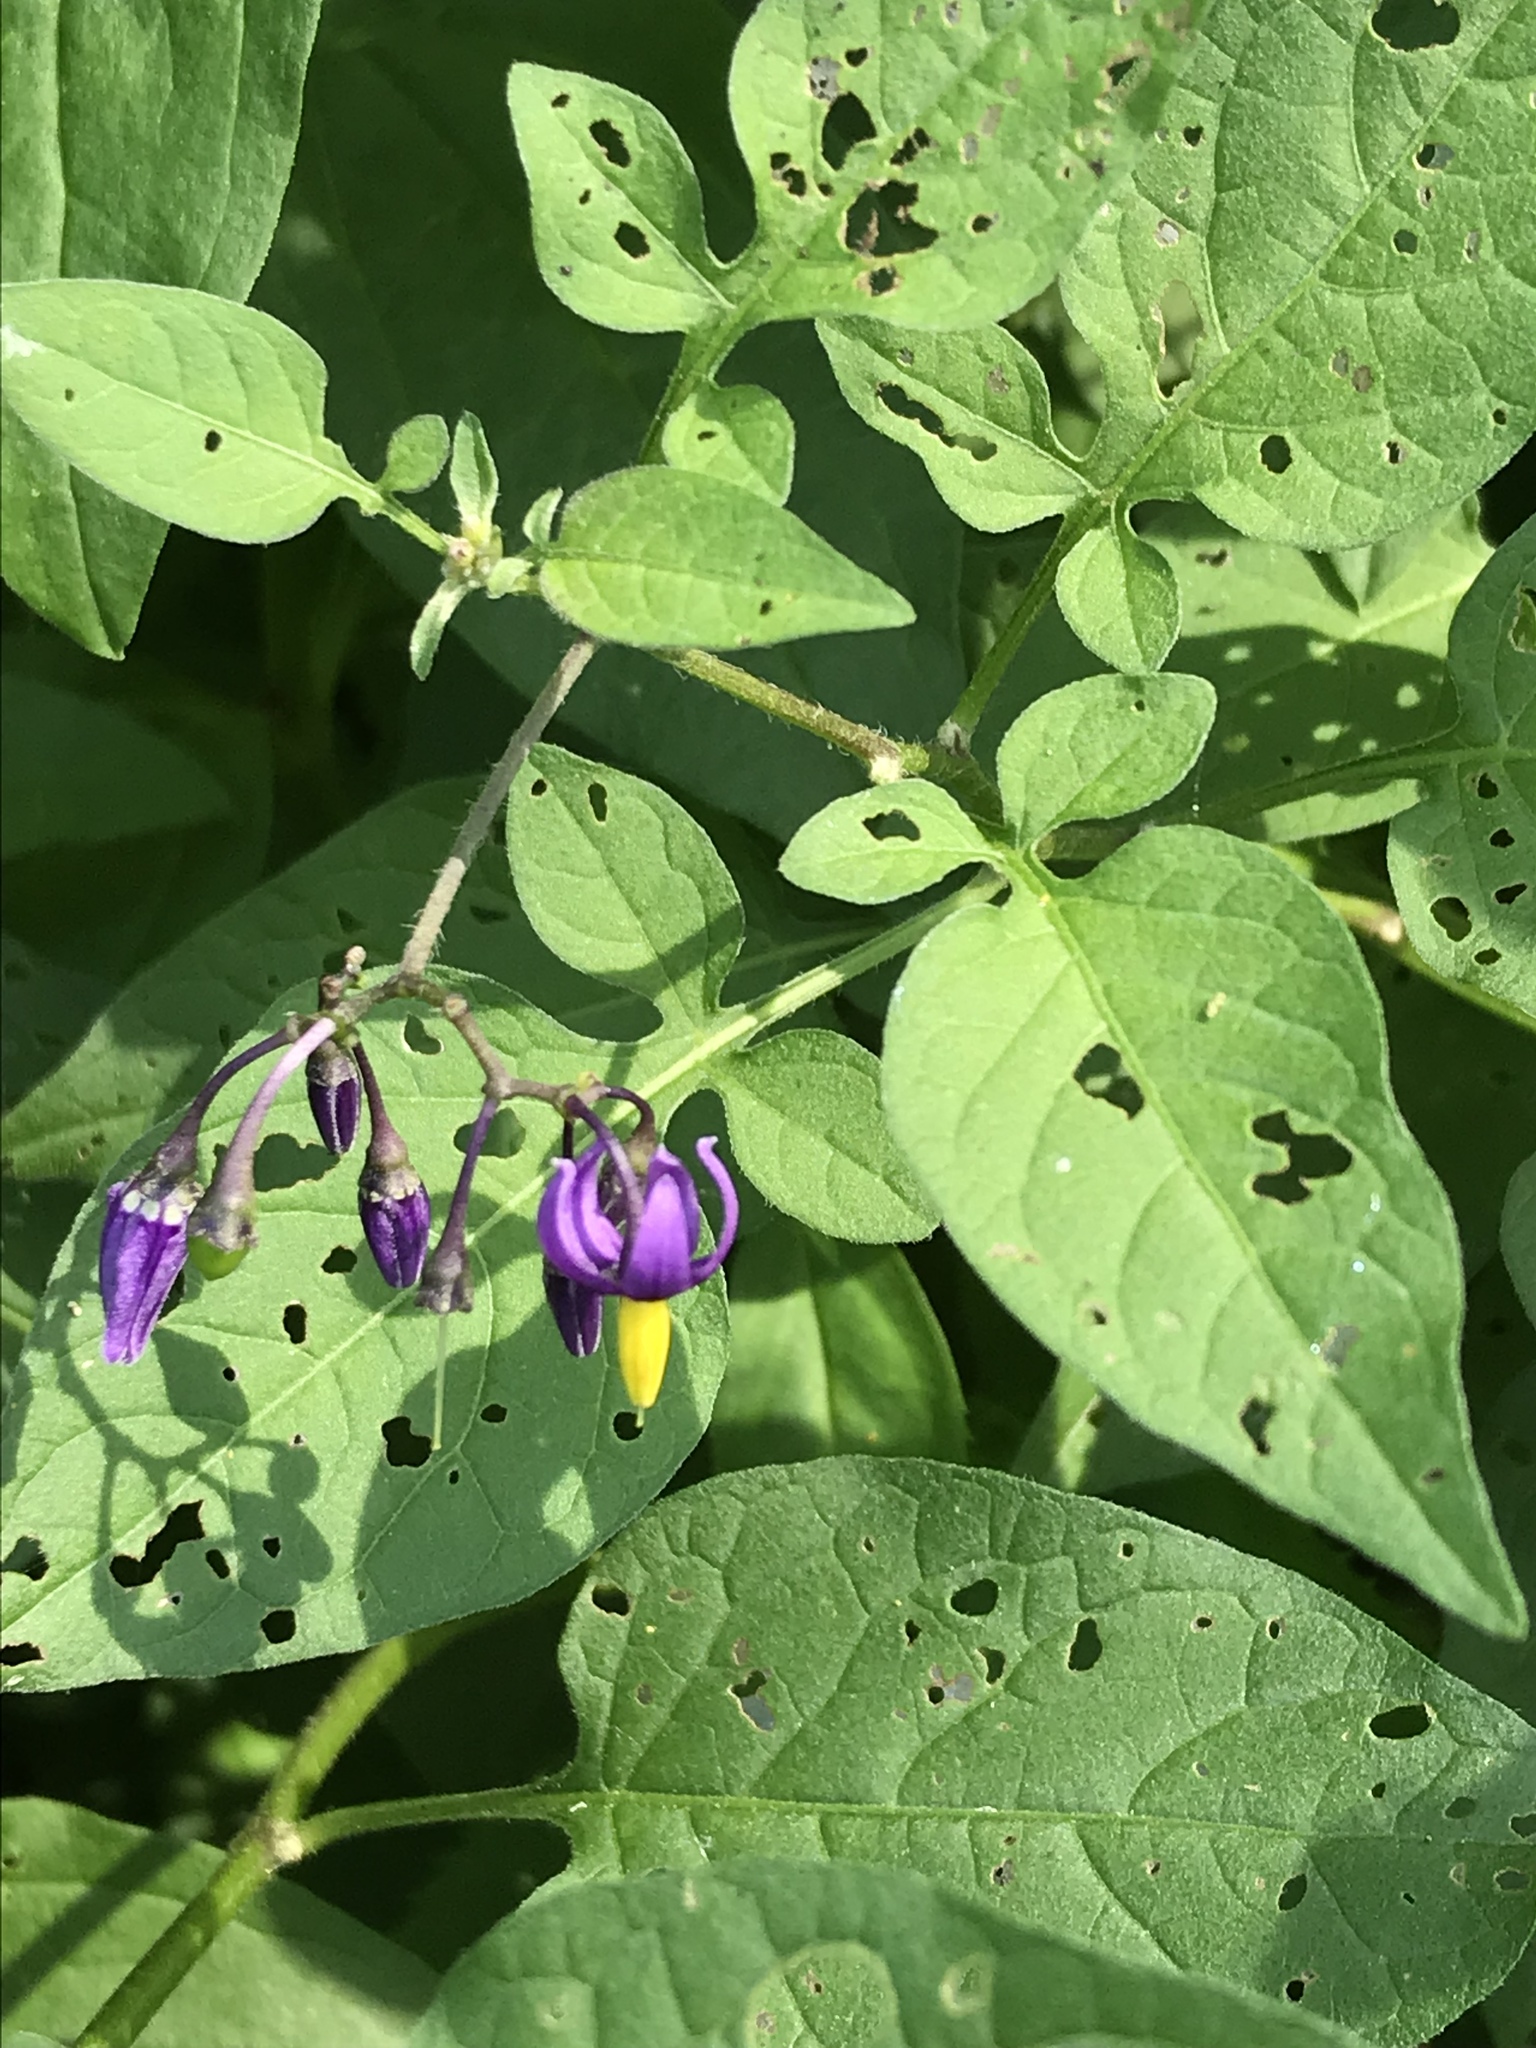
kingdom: Plantae
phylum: Tracheophyta
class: Magnoliopsida
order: Solanales
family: Solanaceae
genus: Solanum
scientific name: Solanum dulcamara
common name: Climbing nightshade
